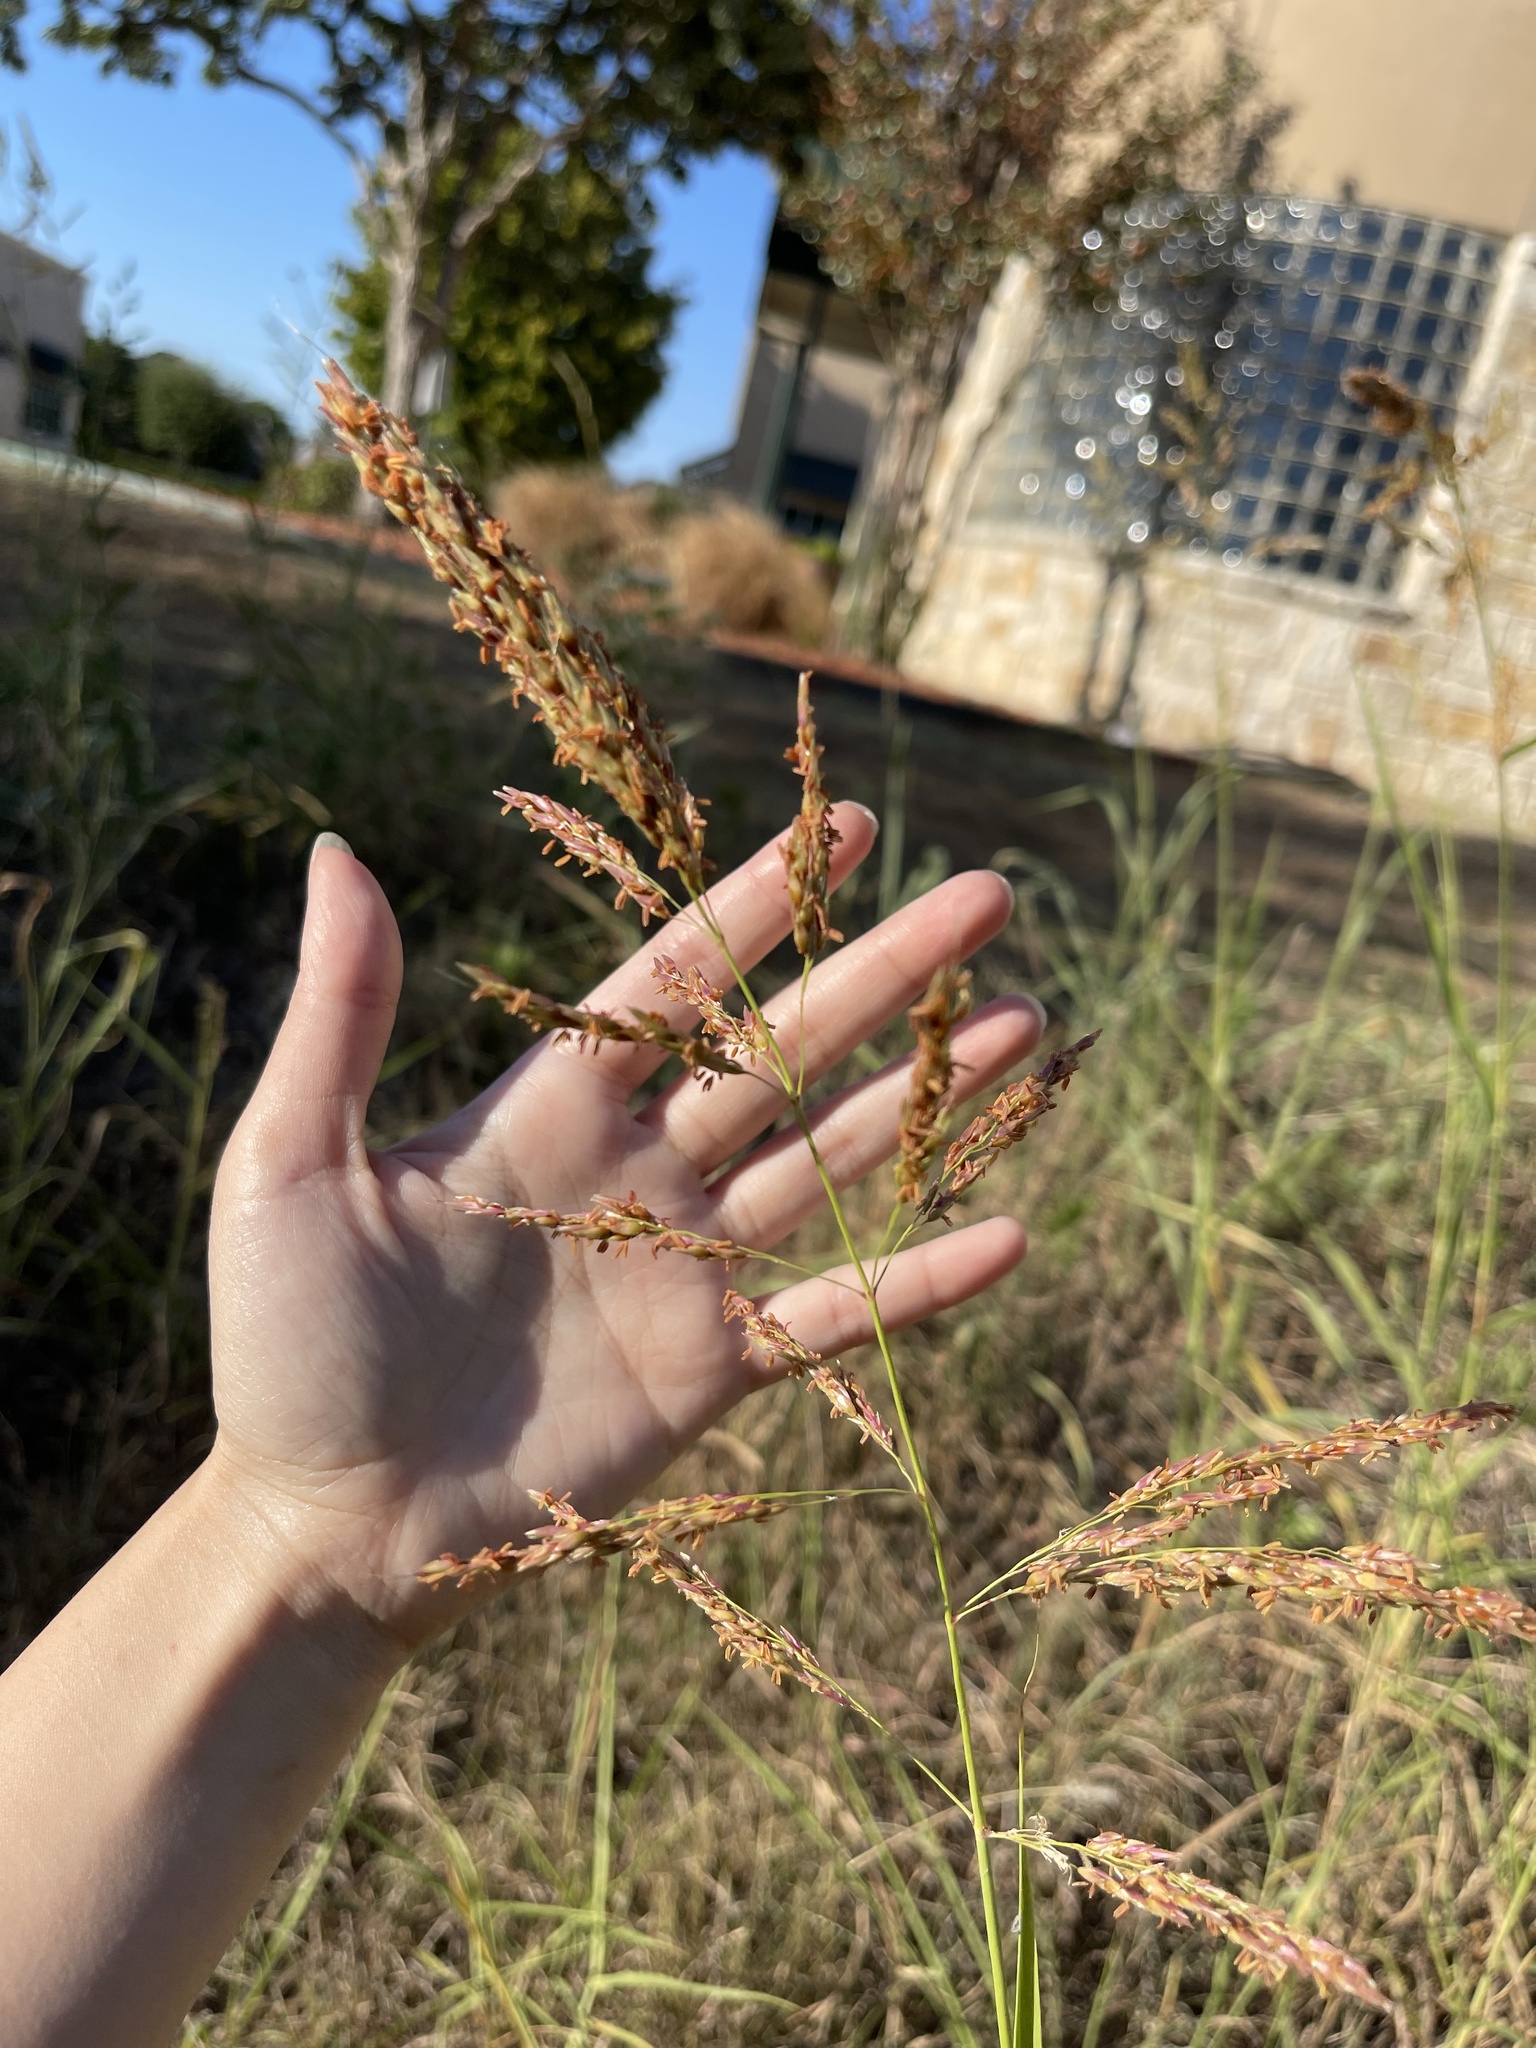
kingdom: Plantae
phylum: Tracheophyta
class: Liliopsida
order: Poales
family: Poaceae
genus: Sorghum
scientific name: Sorghum halepense
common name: Johnson-grass
